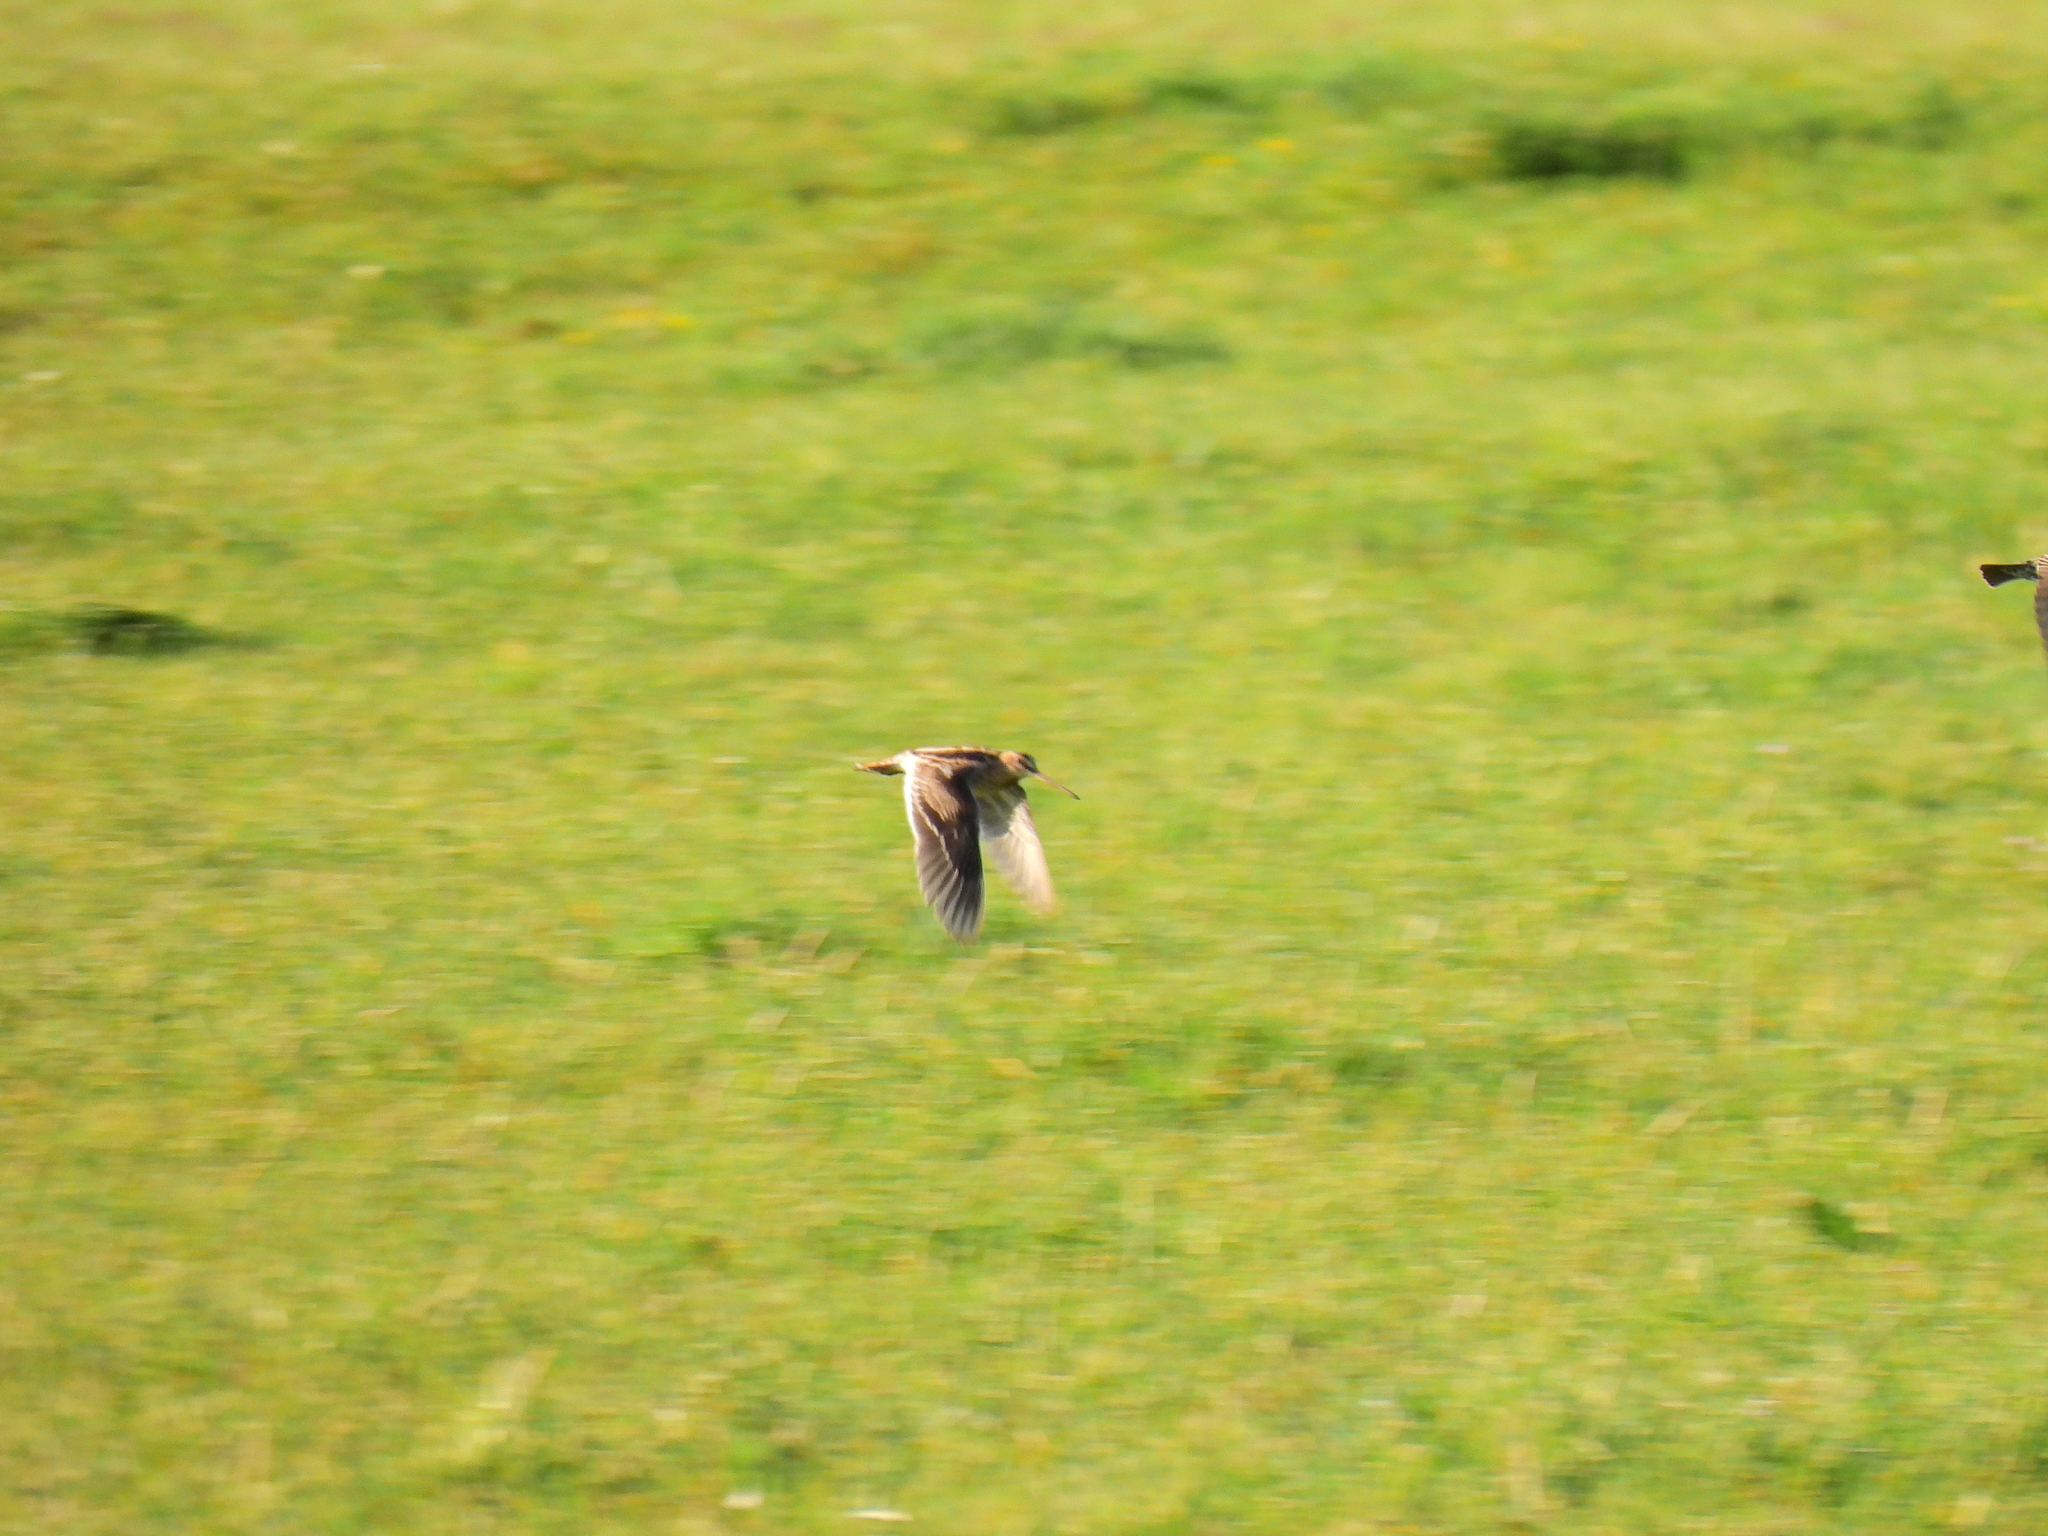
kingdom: Animalia
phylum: Chordata
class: Aves
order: Charadriiformes
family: Scolopacidae
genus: Gallinago
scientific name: Gallinago gallinago
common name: Common snipe
